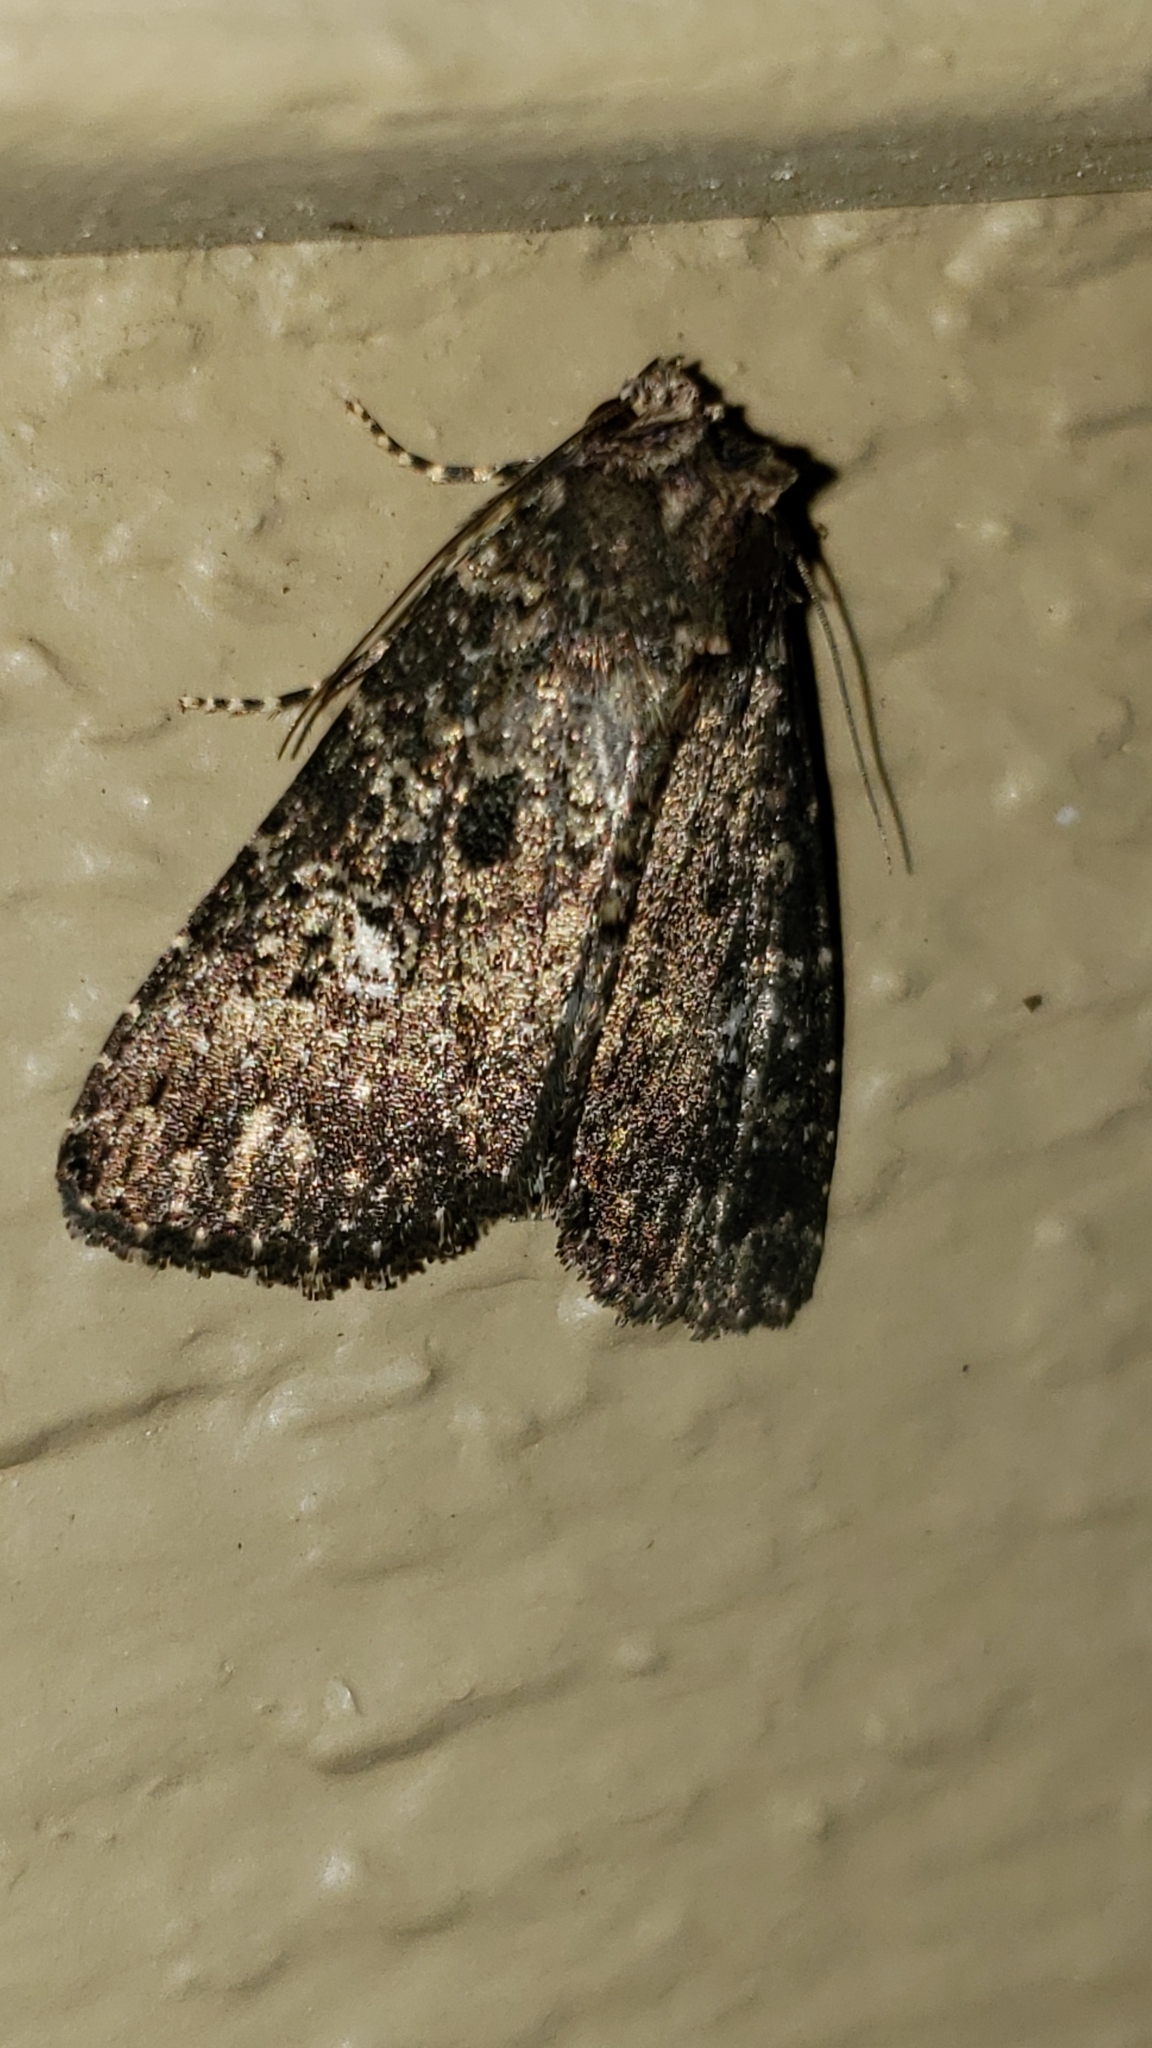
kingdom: Animalia
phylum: Arthropoda
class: Insecta
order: Lepidoptera
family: Noctuidae
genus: Condica
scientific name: Condica vecors
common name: Dusky groundling
